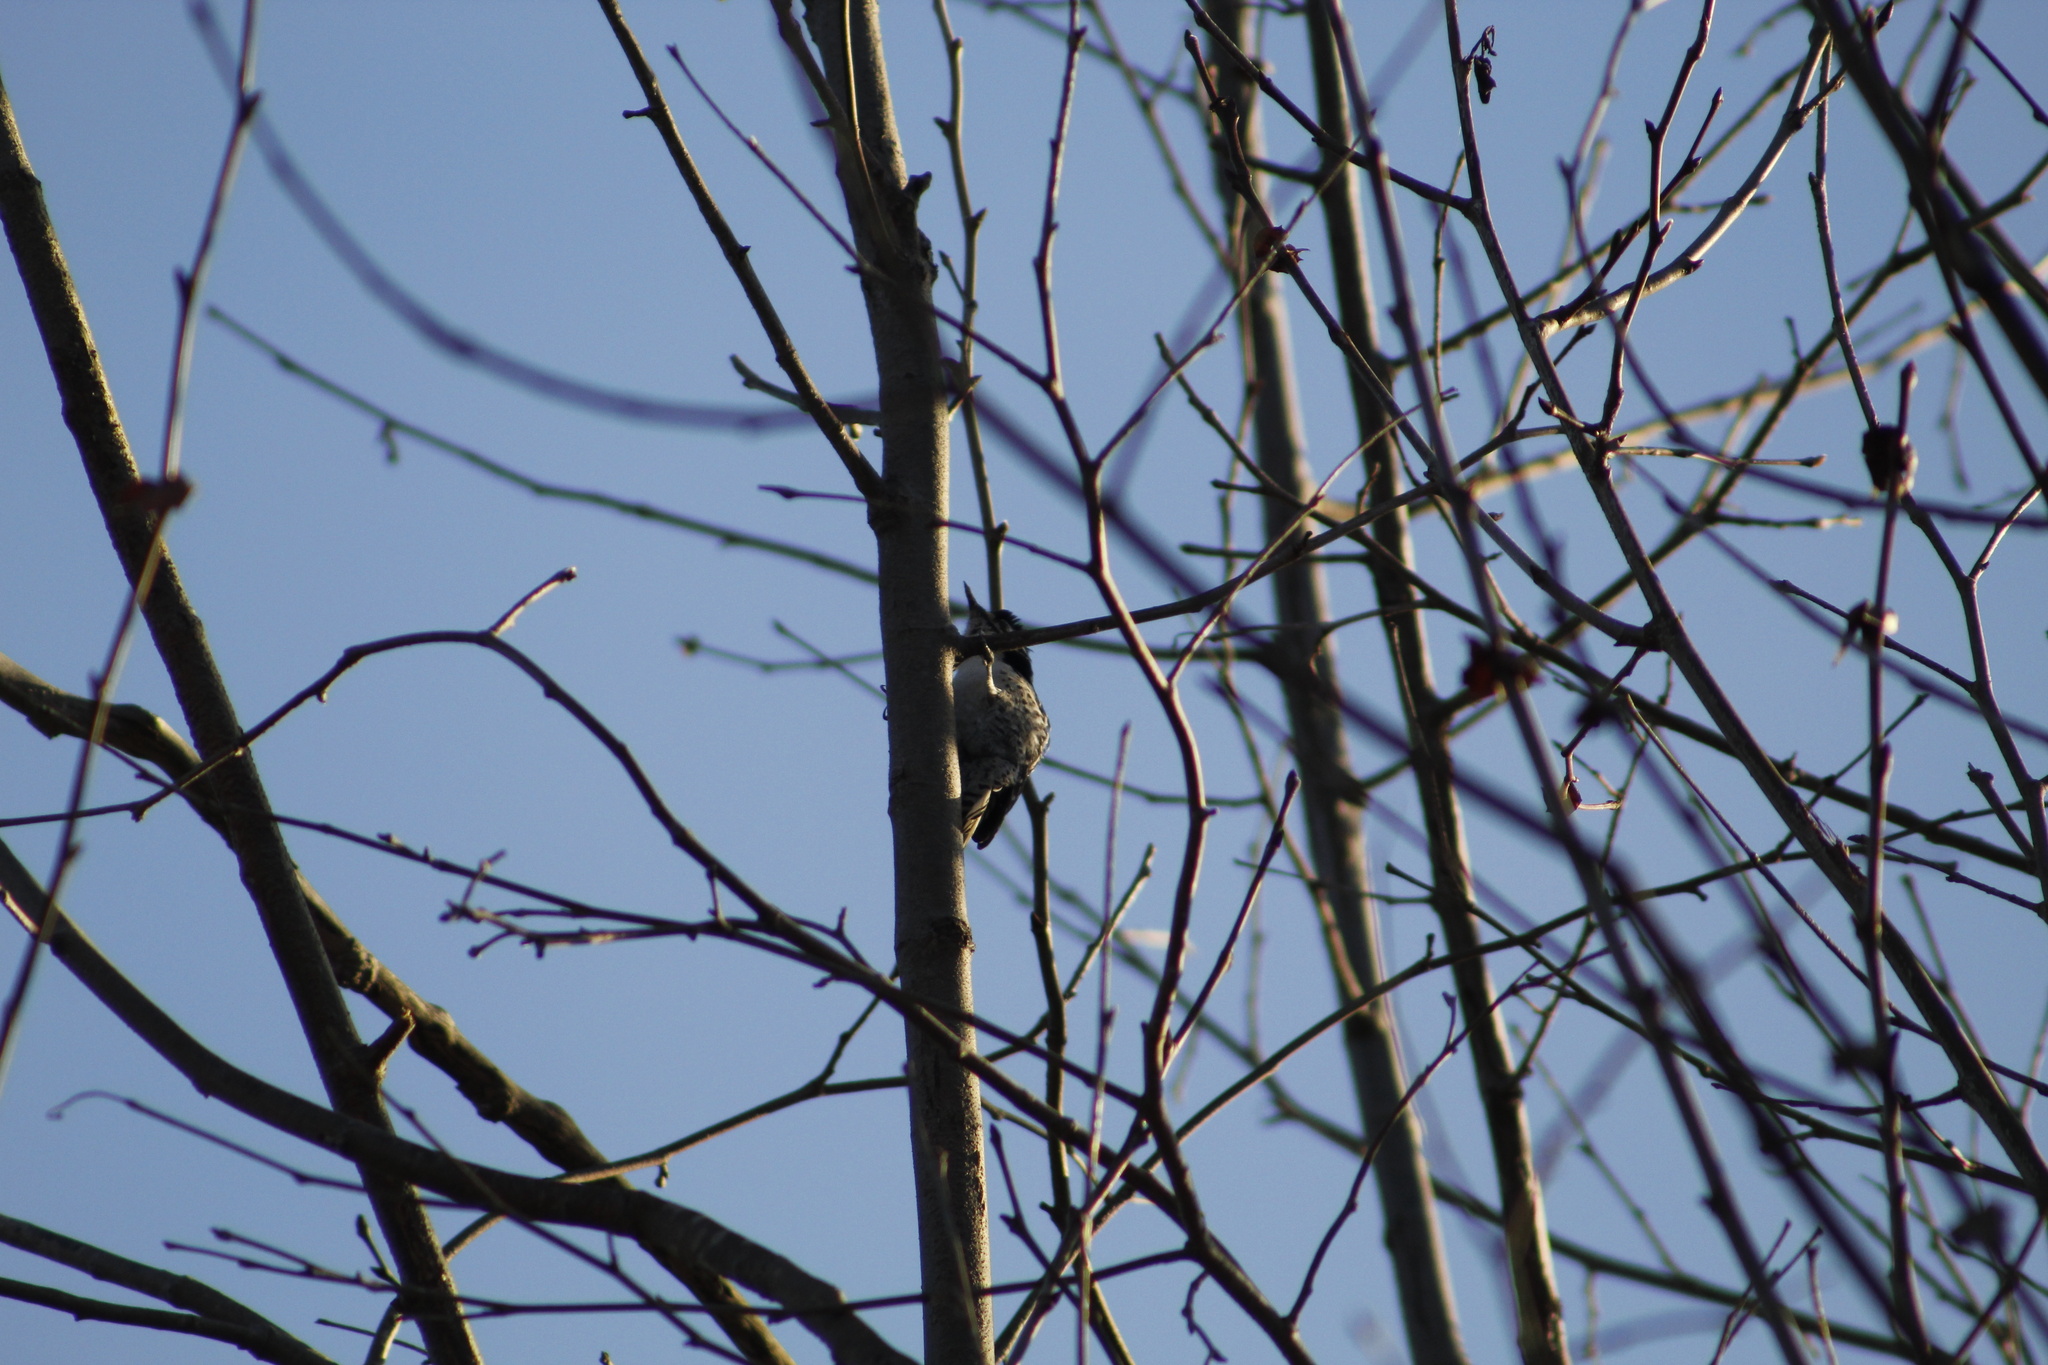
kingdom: Animalia
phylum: Chordata
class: Aves
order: Piciformes
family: Picidae
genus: Dryobates
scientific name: Dryobates nuttallii
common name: Nuttall's woodpecker
